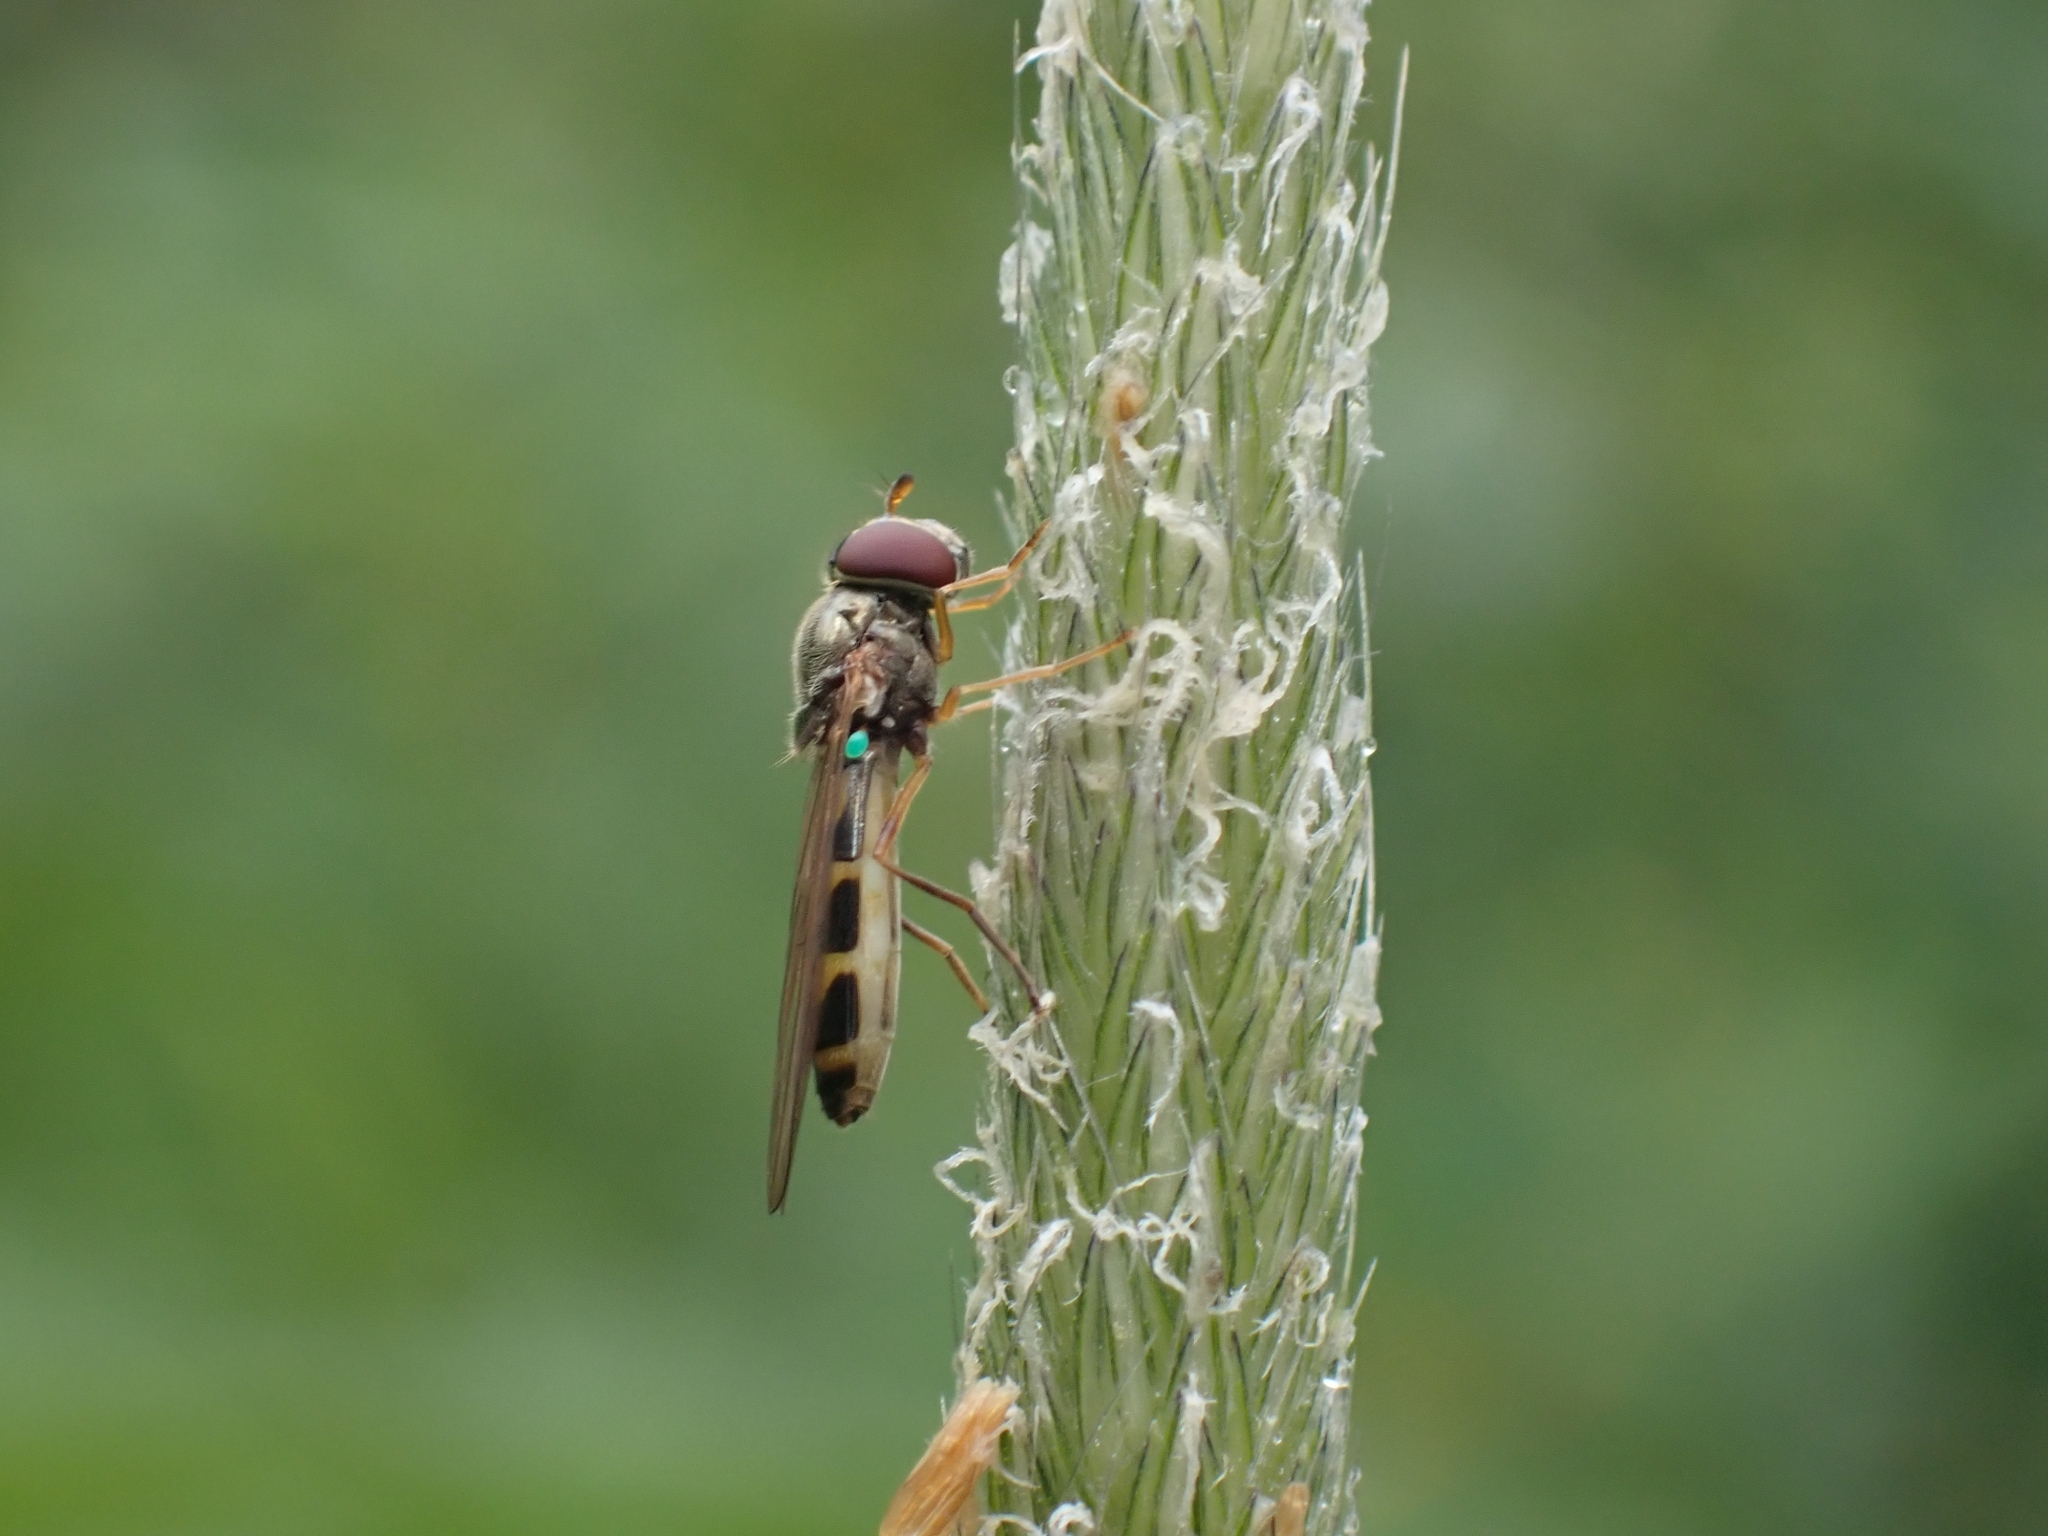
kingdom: Animalia
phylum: Arthropoda
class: Insecta
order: Diptera
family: Syrphidae
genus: Melanostoma
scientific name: Melanostoma mellina
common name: Hover fly
